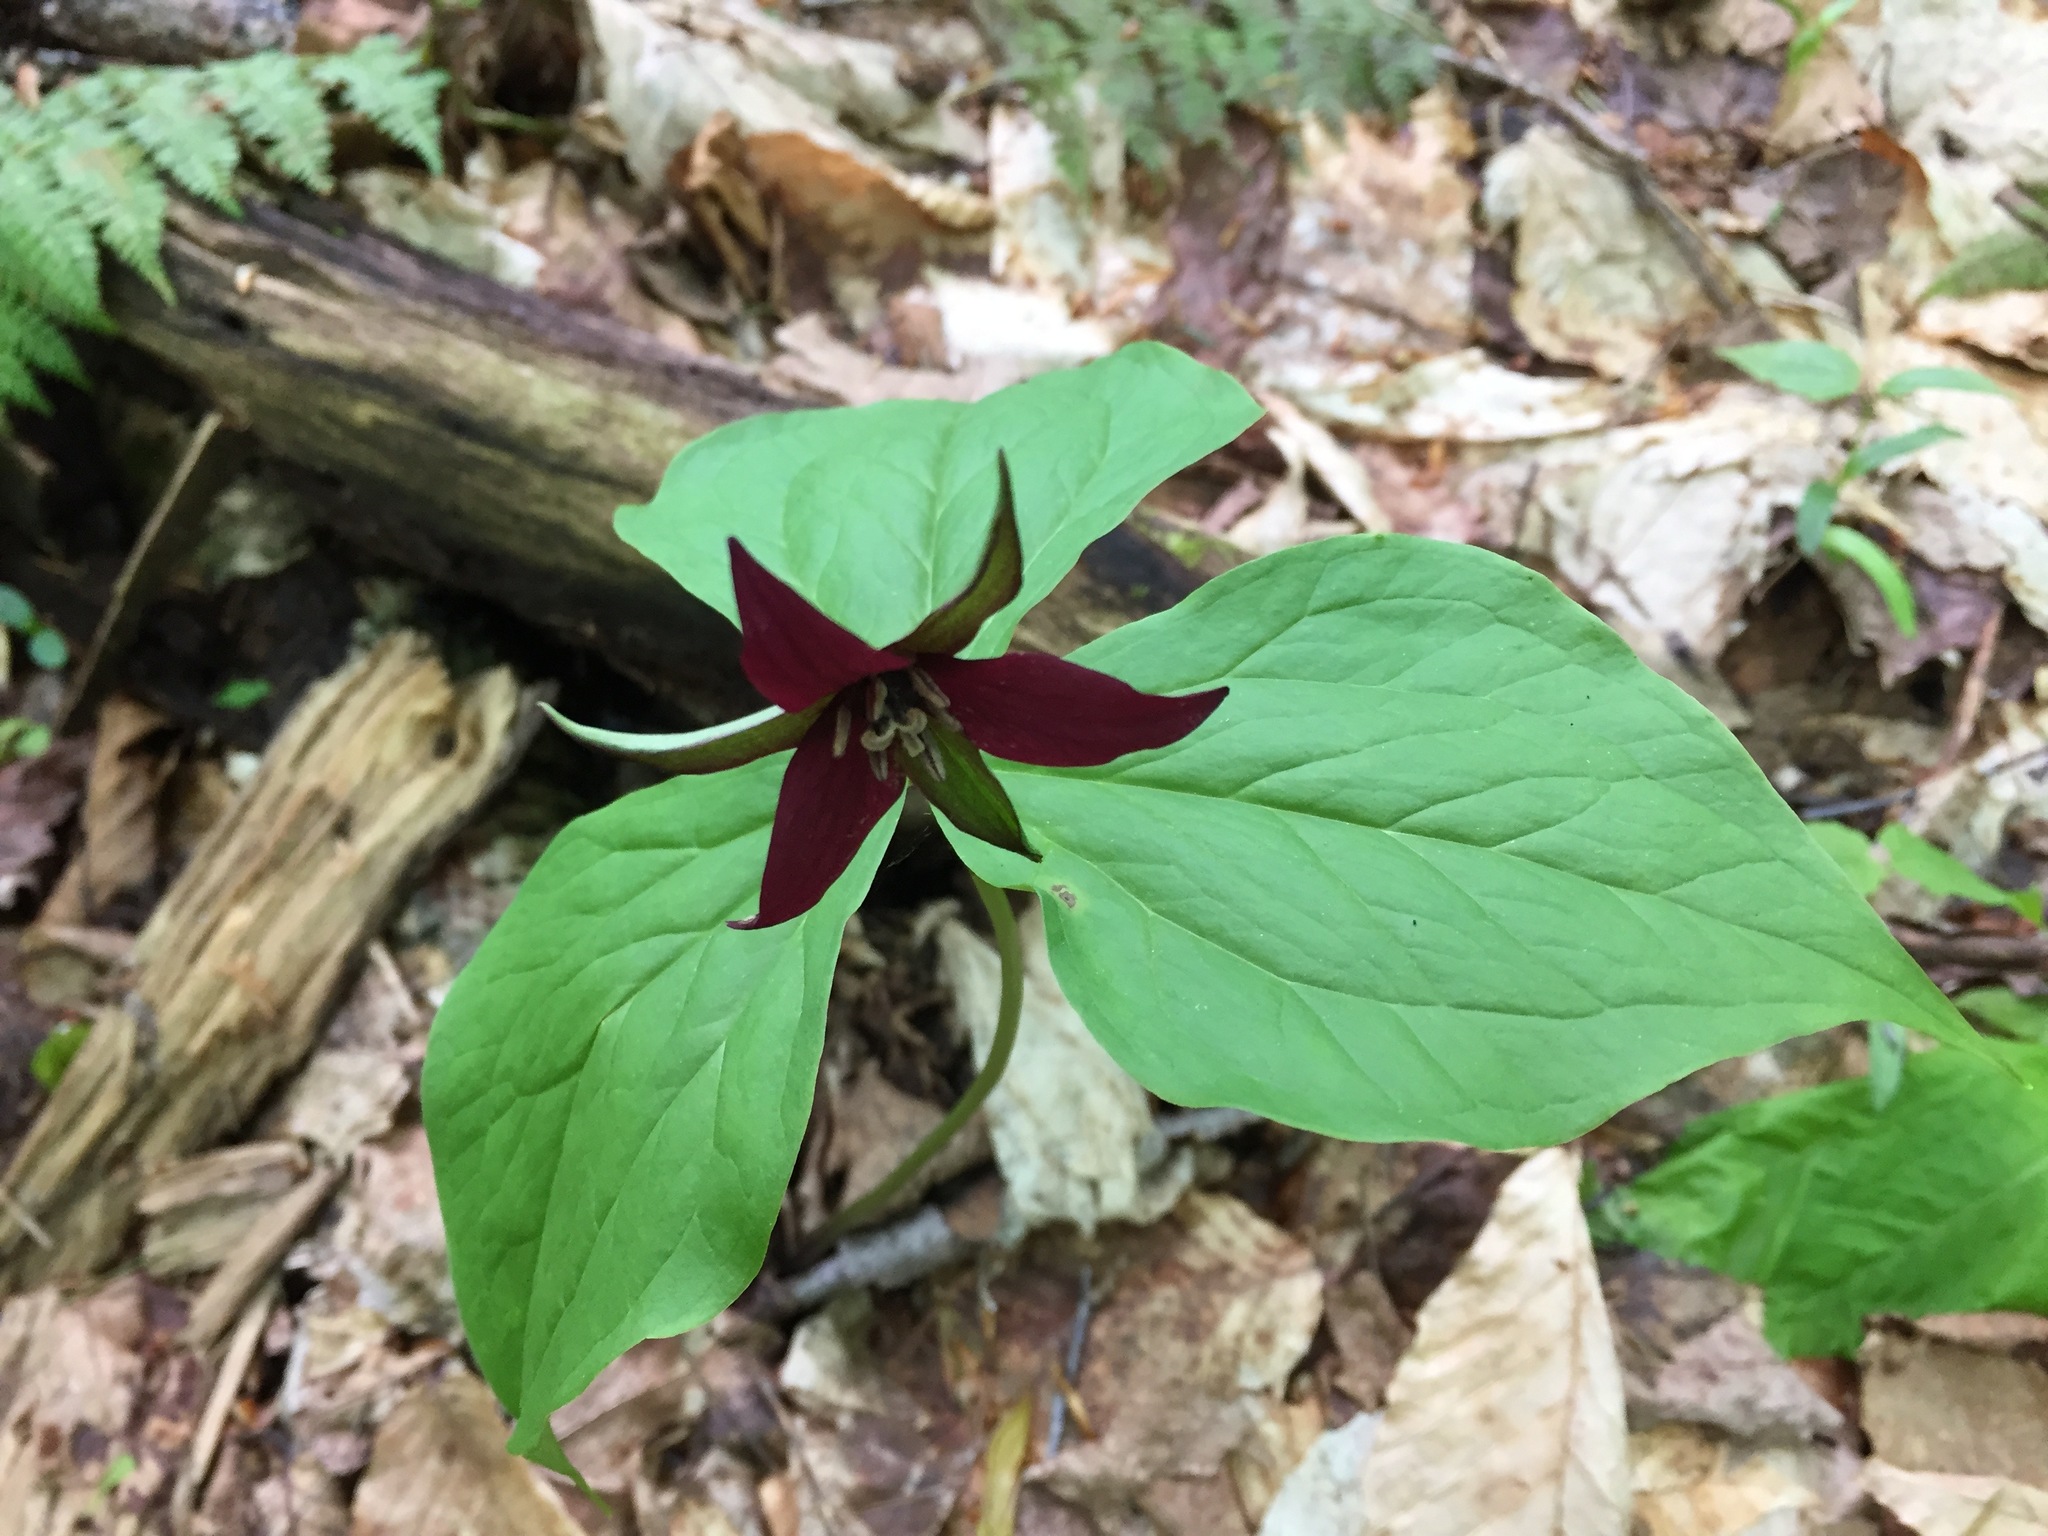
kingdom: Plantae
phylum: Tracheophyta
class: Liliopsida
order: Liliales
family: Melanthiaceae
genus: Trillium
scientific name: Trillium erectum
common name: Purple trillium
